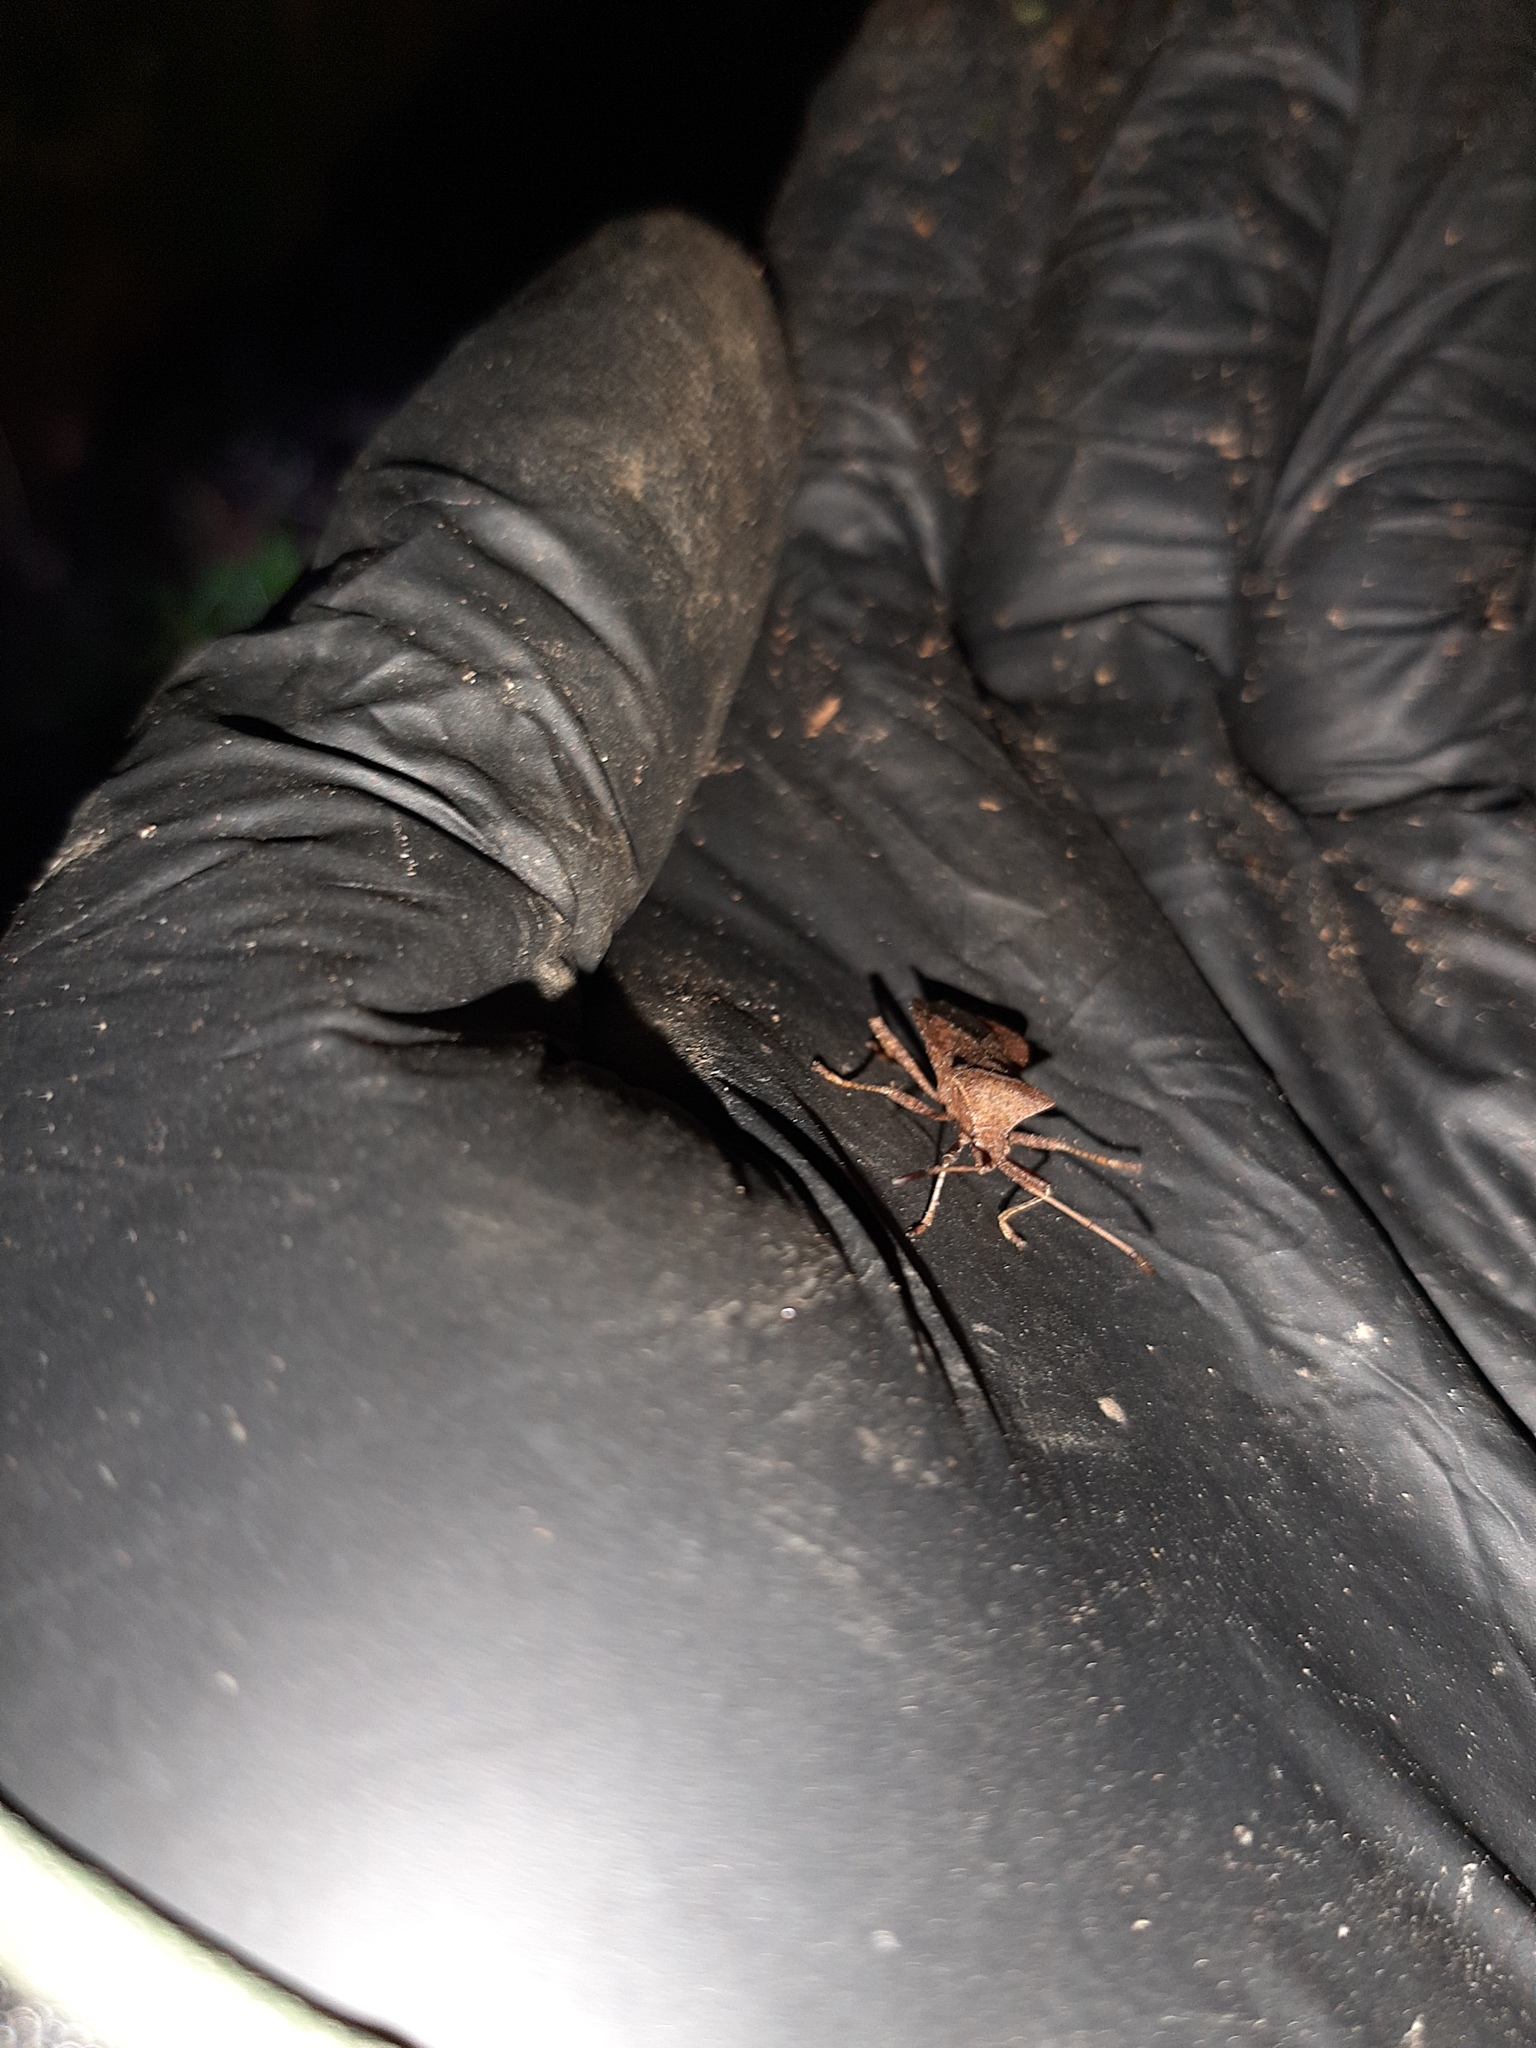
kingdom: Animalia
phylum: Arthropoda
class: Insecta
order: Hemiptera
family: Coreidae
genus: Coreus
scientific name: Coreus marginatus
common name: Dock bug
